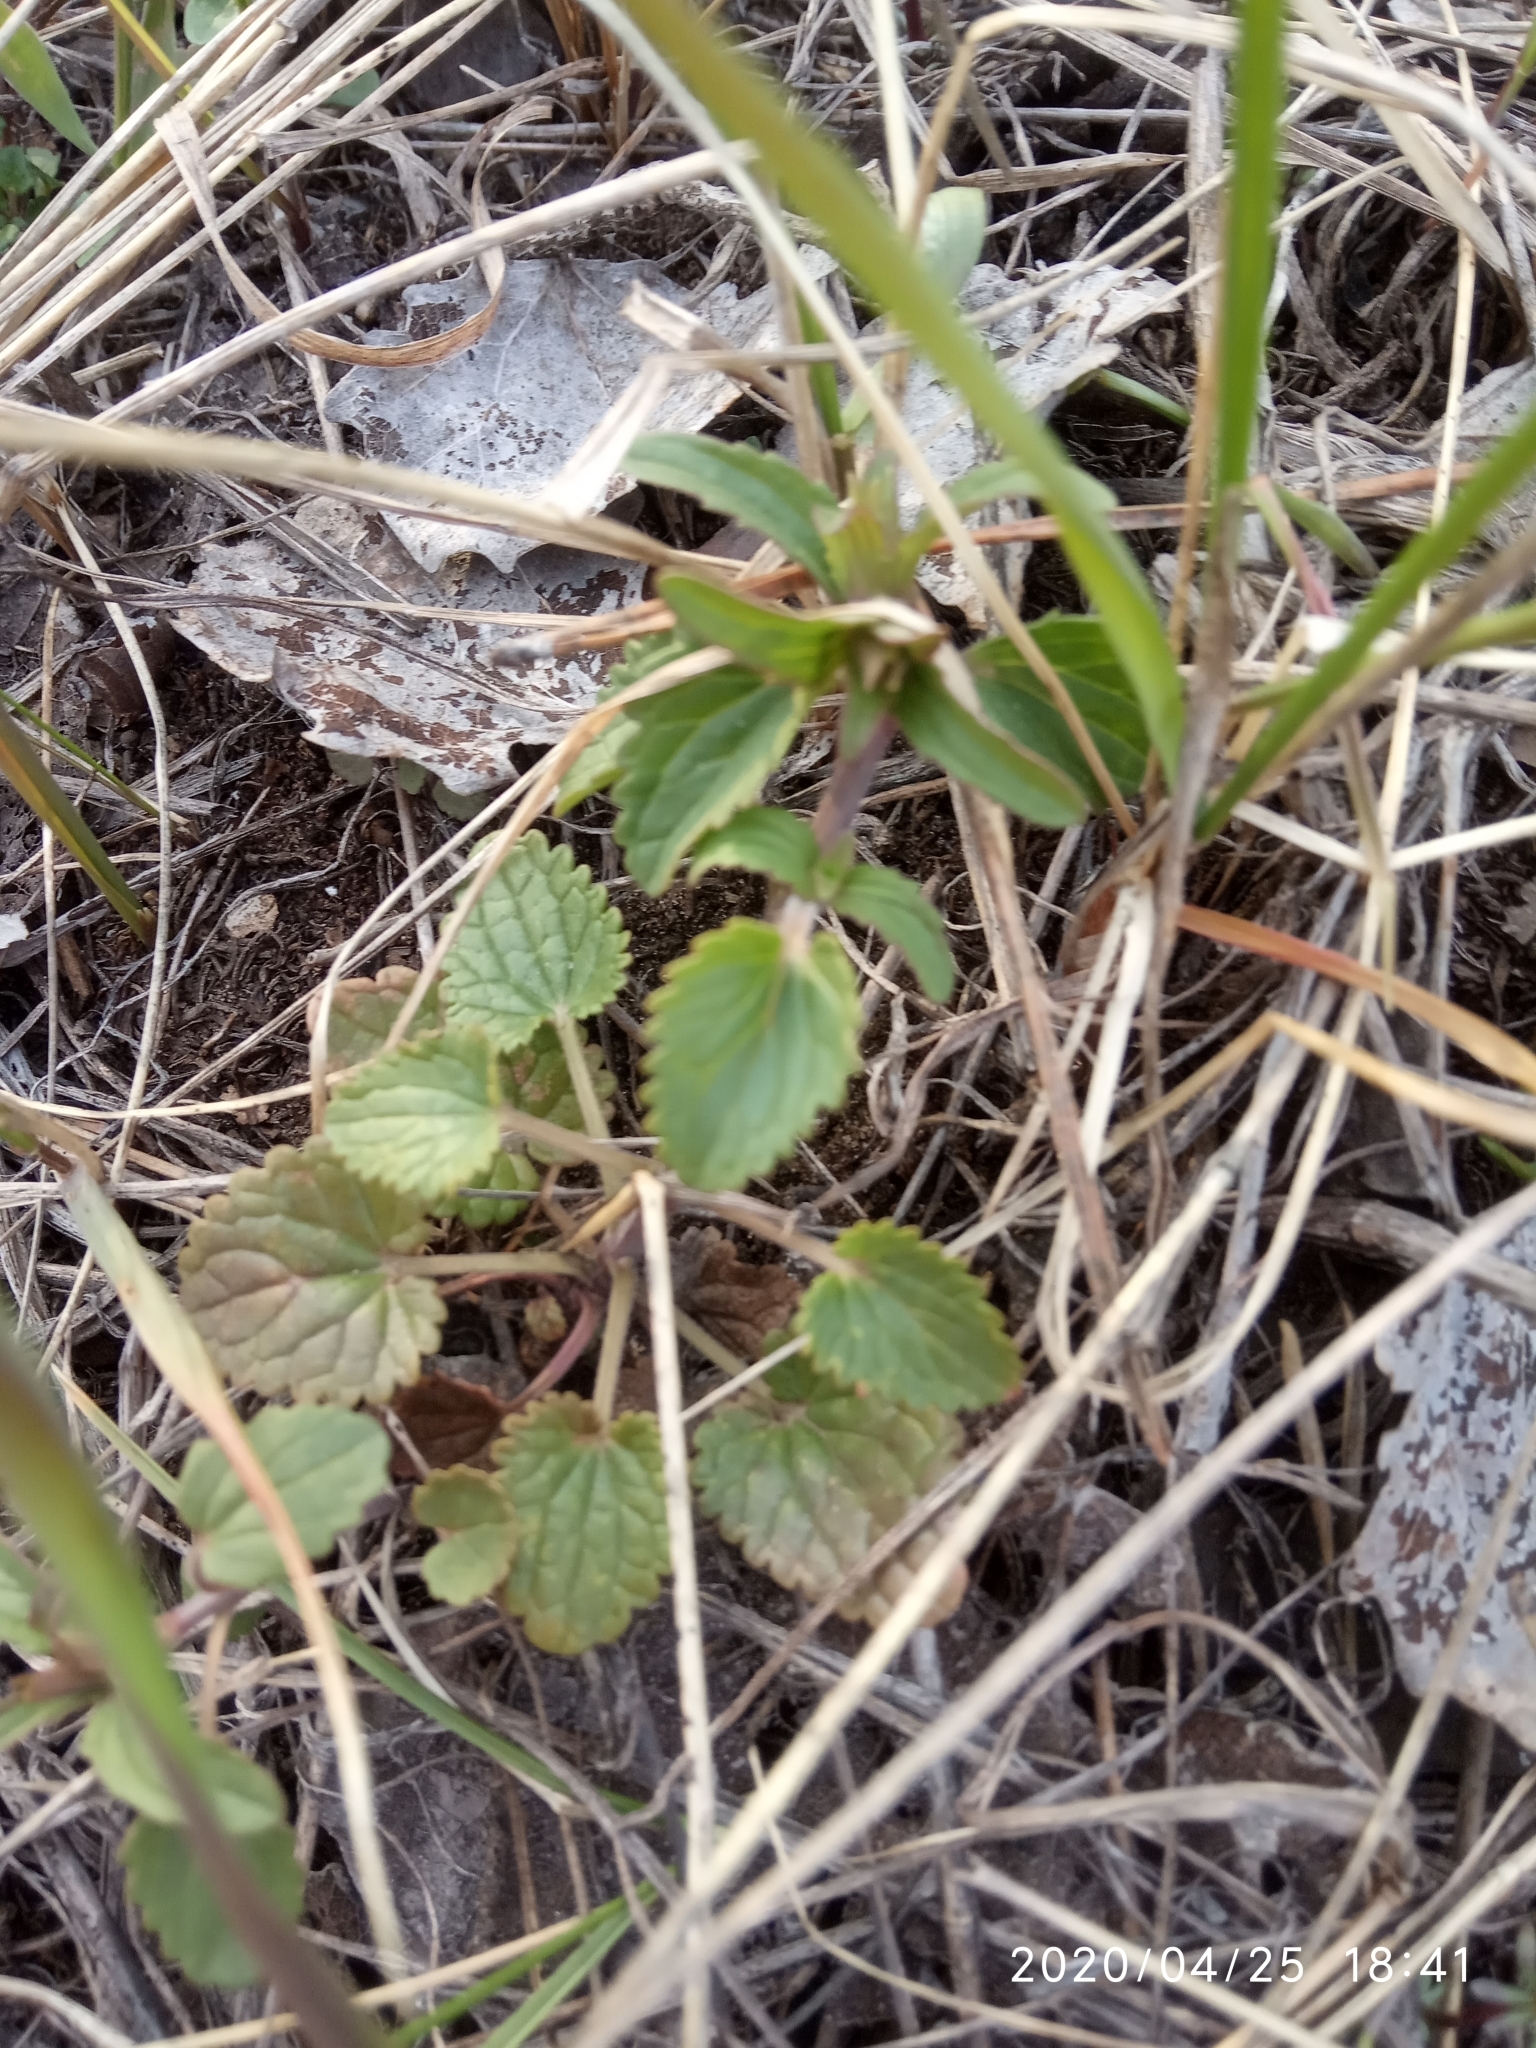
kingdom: Plantae
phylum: Tracheophyta
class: Magnoliopsida
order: Lamiales
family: Lamiaceae
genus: Dracocephalum
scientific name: Dracocephalum thymiflorum
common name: Thymeleaf dragonhead
